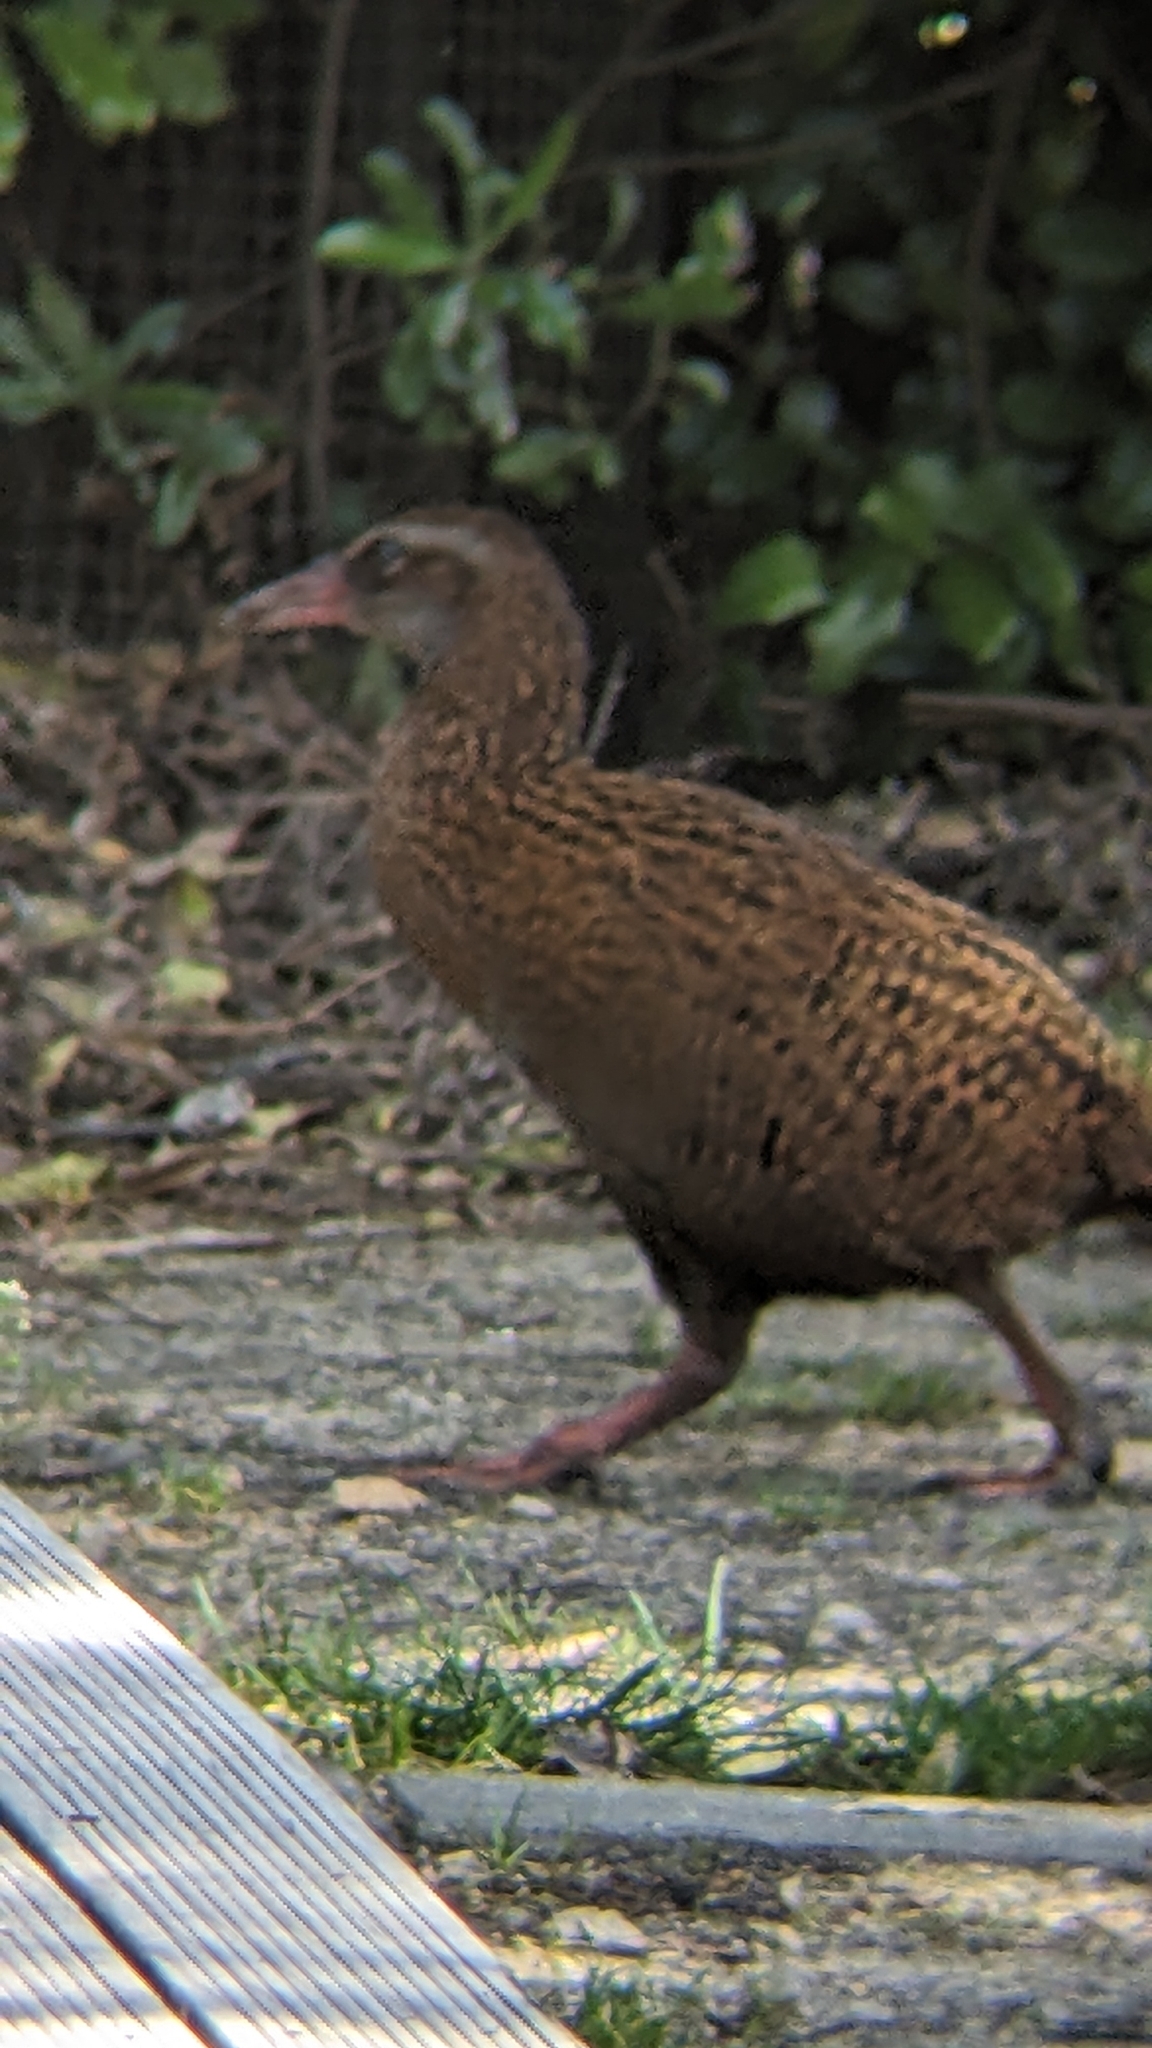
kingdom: Animalia
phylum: Chordata
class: Aves
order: Gruiformes
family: Rallidae
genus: Gallirallus
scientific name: Gallirallus australis
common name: Weka
